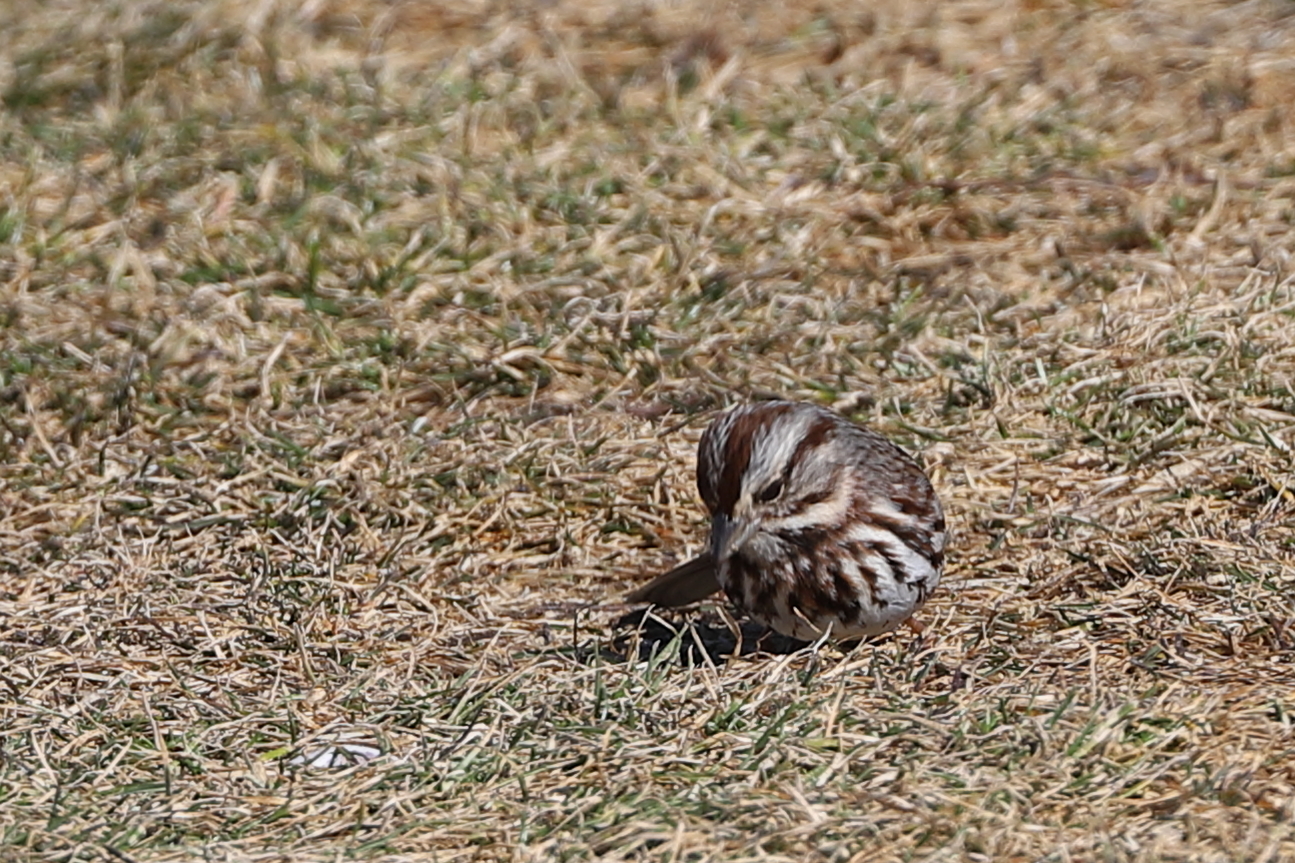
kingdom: Animalia
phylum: Chordata
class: Aves
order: Passeriformes
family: Passerellidae
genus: Melospiza
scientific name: Melospiza melodia
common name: Song sparrow
